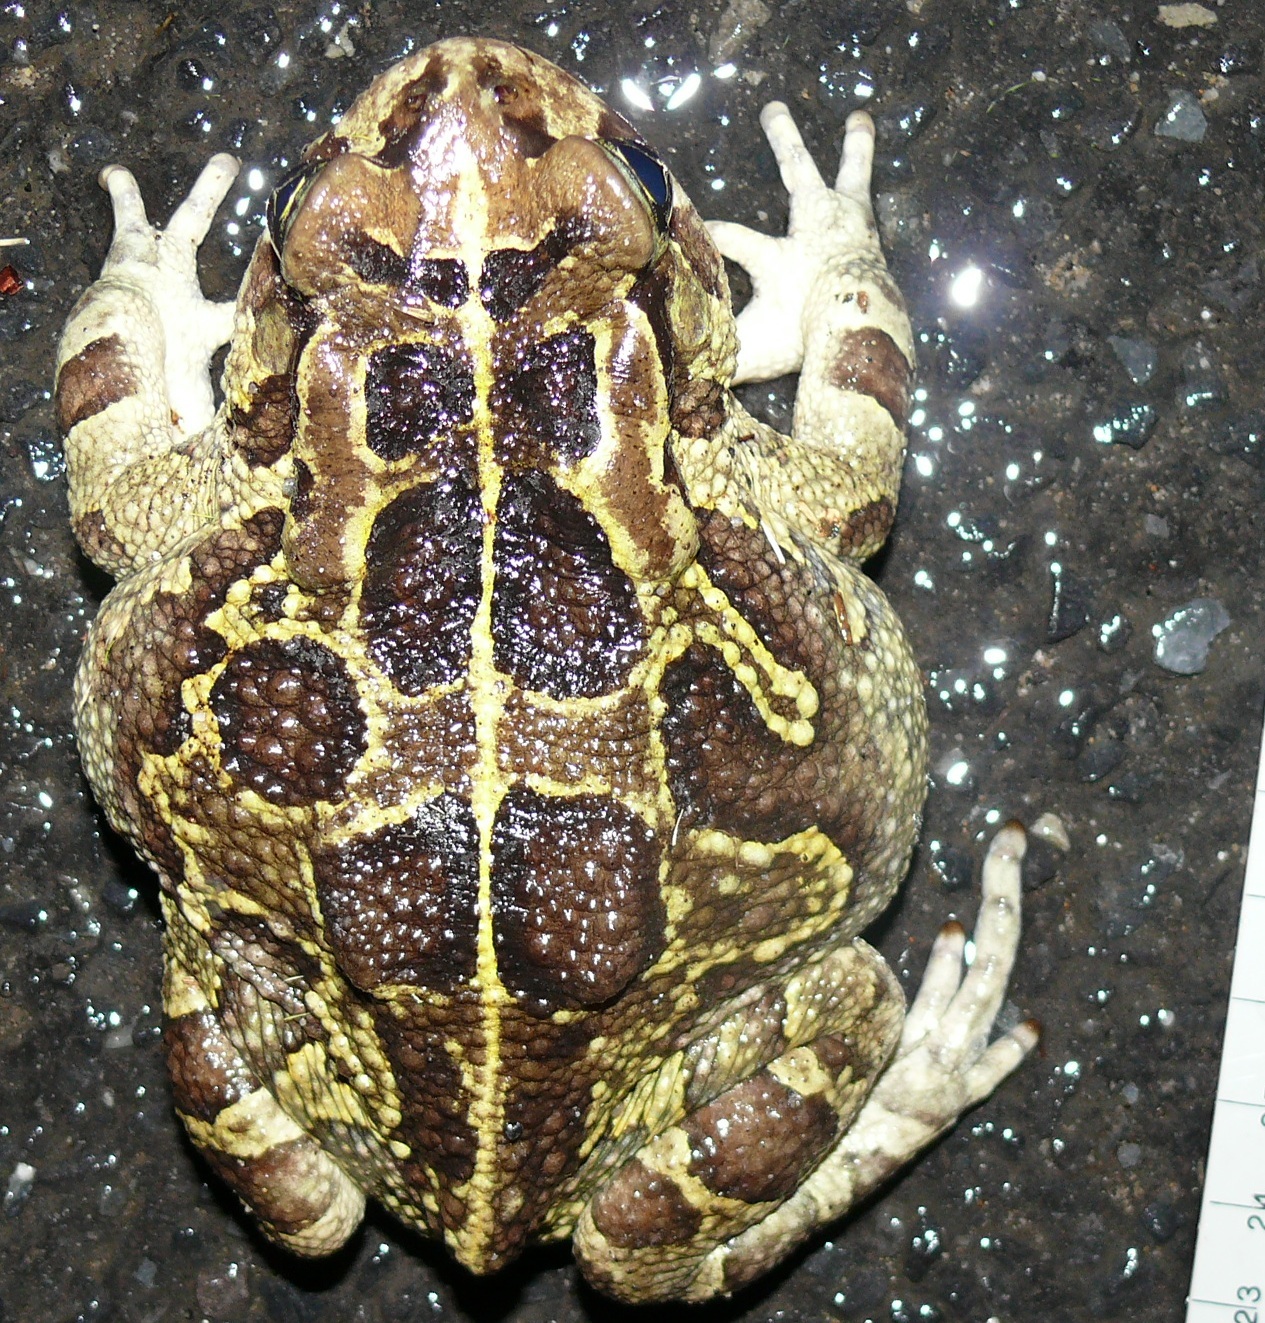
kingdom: Animalia
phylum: Chordata
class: Amphibia
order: Anura
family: Bufonidae
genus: Sclerophrys
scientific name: Sclerophrys pantherina
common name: Panther toad
